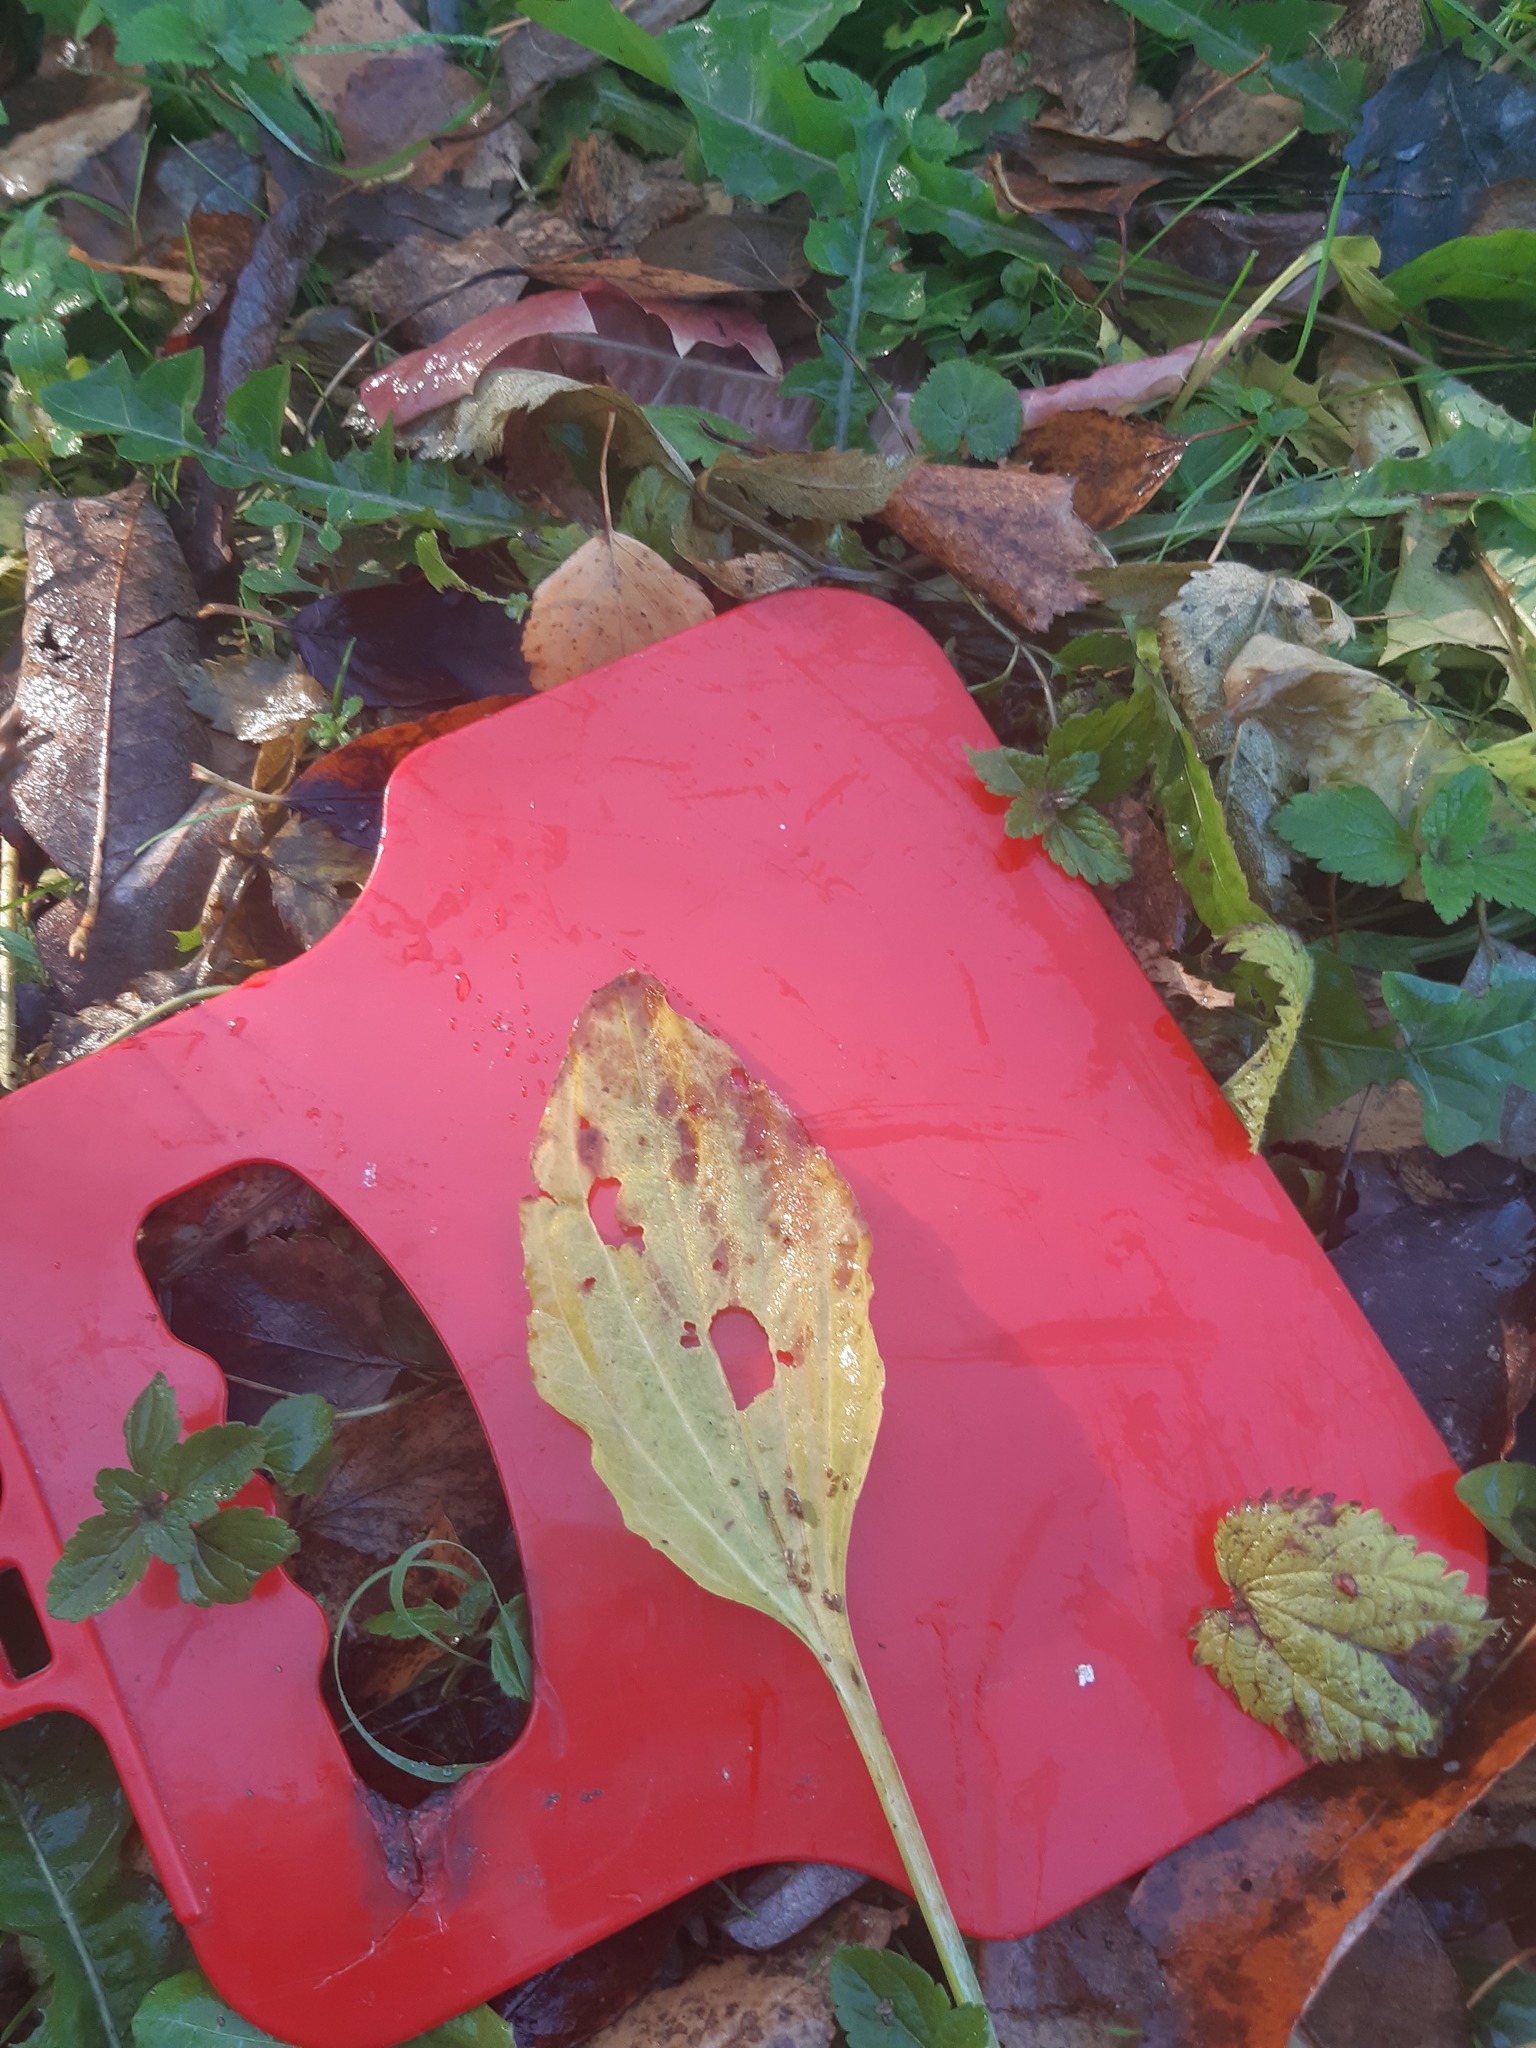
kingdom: Plantae
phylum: Tracheophyta
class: Magnoliopsida
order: Lamiales
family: Plantaginaceae
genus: Plantago
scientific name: Plantago major
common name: Common plantain
